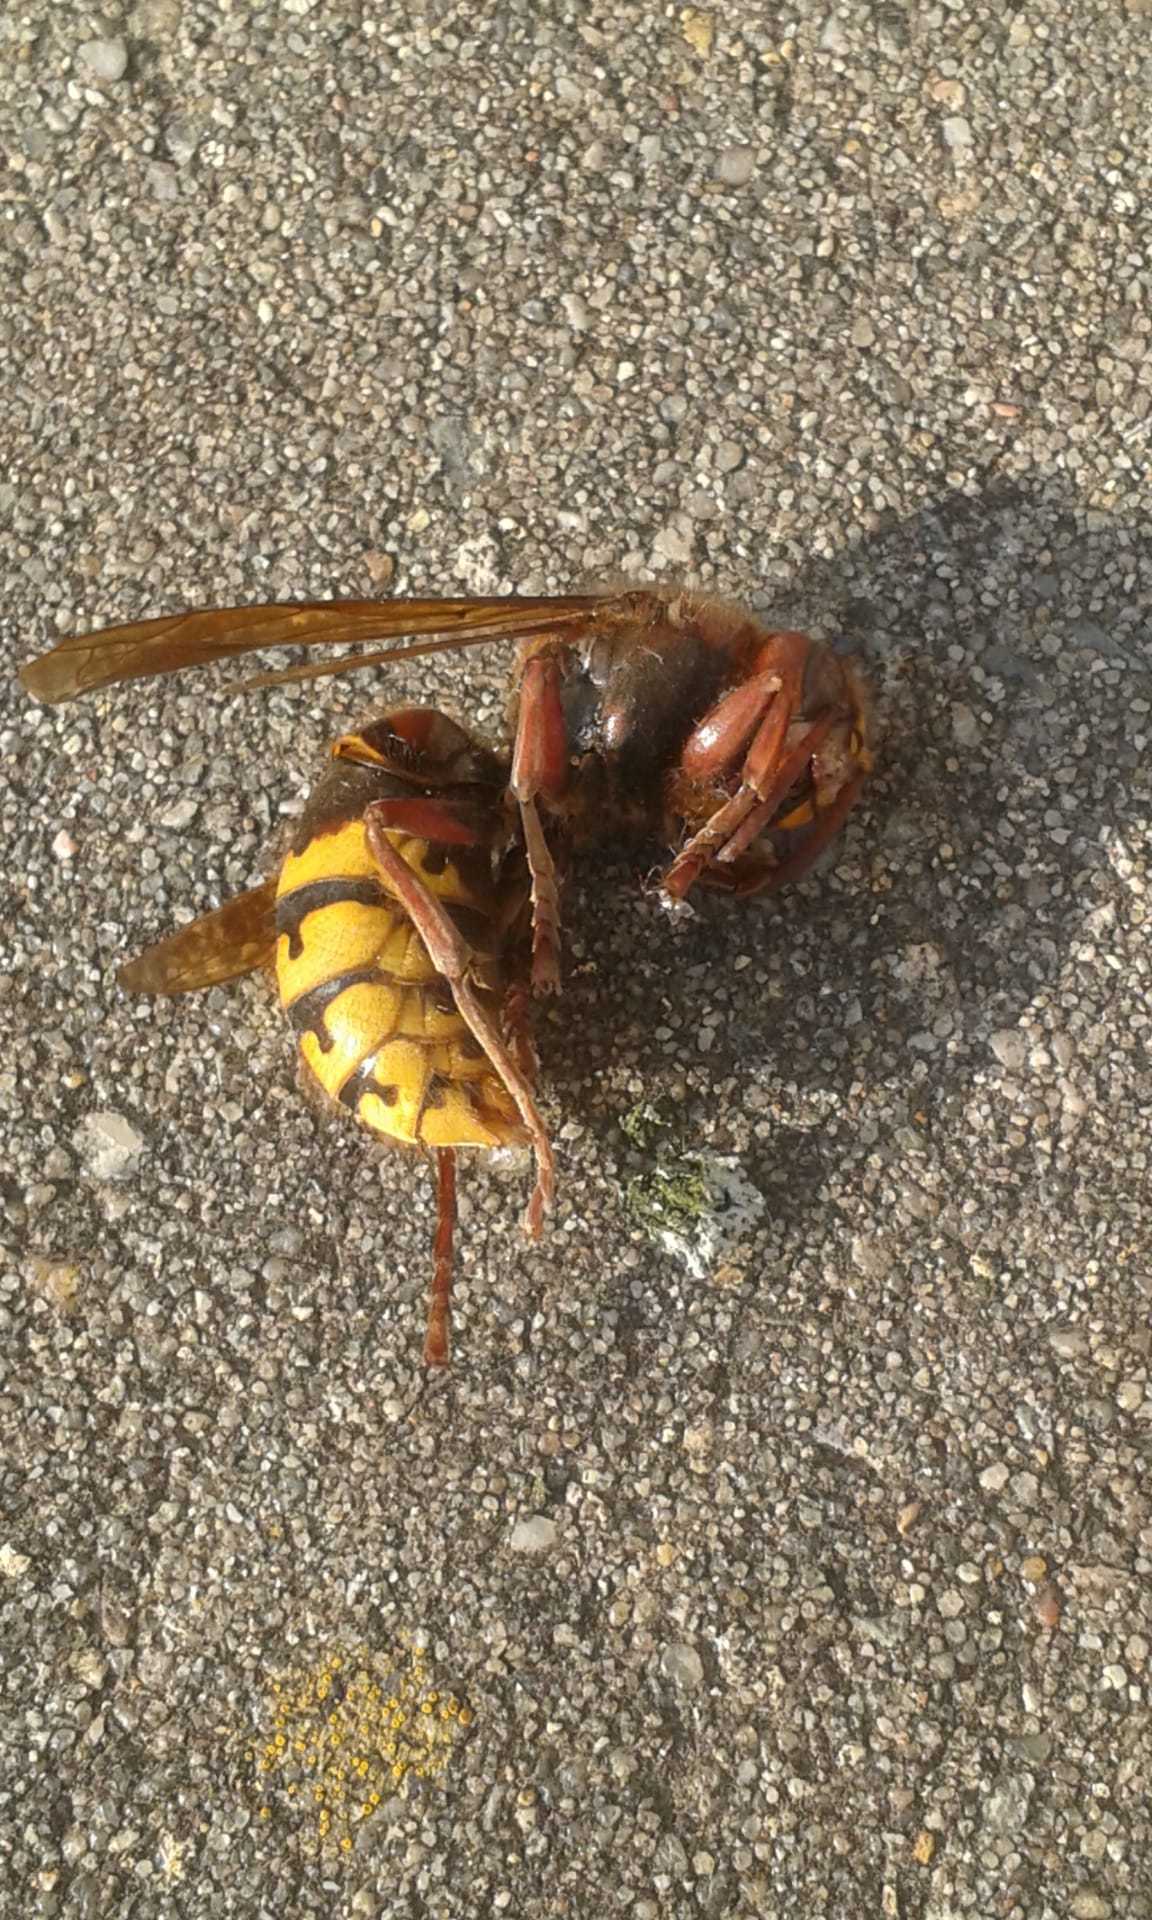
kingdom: Animalia
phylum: Arthropoda
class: Insecta
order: Hymenoptera
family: Vespidae
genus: Vespa
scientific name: Vespa crabro
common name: Hornet
